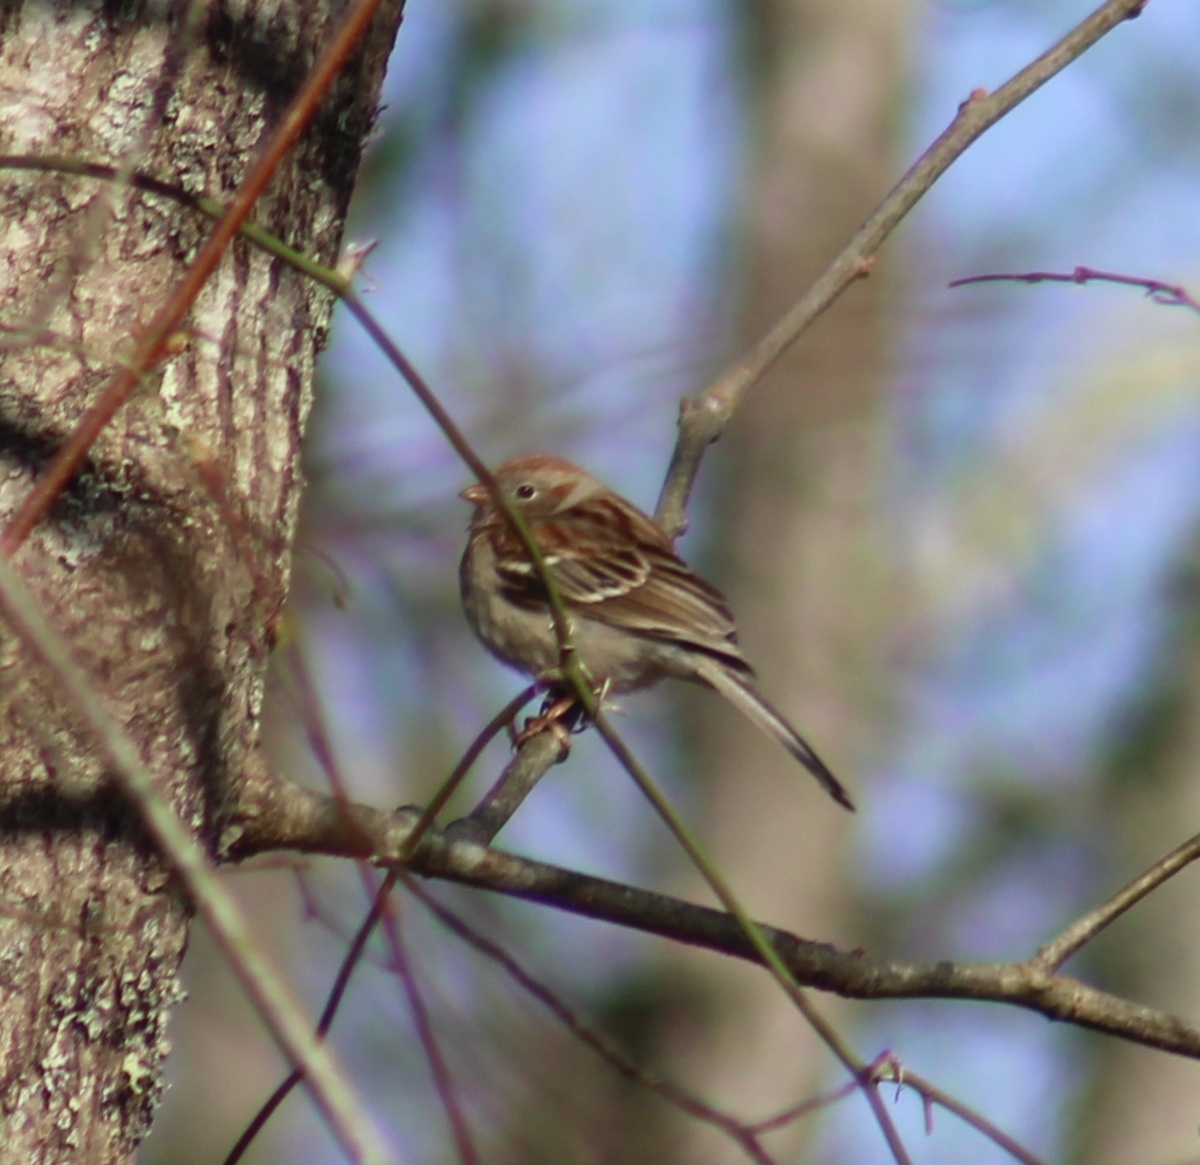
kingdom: Animalia
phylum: Chordata
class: Aves
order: Passeriformes
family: Passerellidae
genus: Spizella
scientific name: Spizella pusilla
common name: Field sparrow
